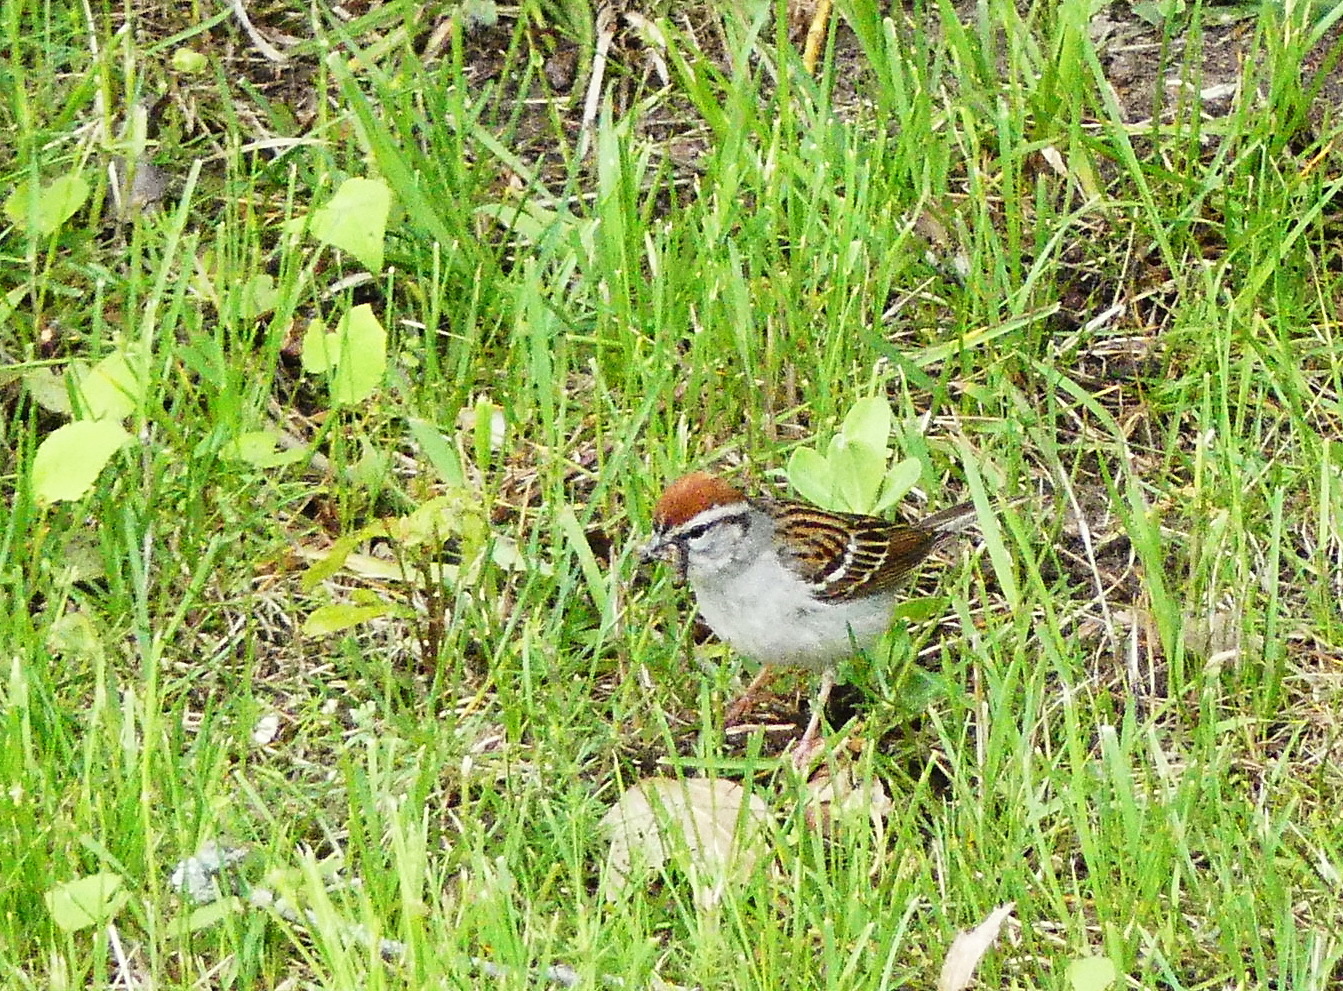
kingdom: Animalia
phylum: Chordata
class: Aves
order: Passeriformes
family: Passerellidae
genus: Spizella
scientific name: Spizella passerina
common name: Chipping sparrow
